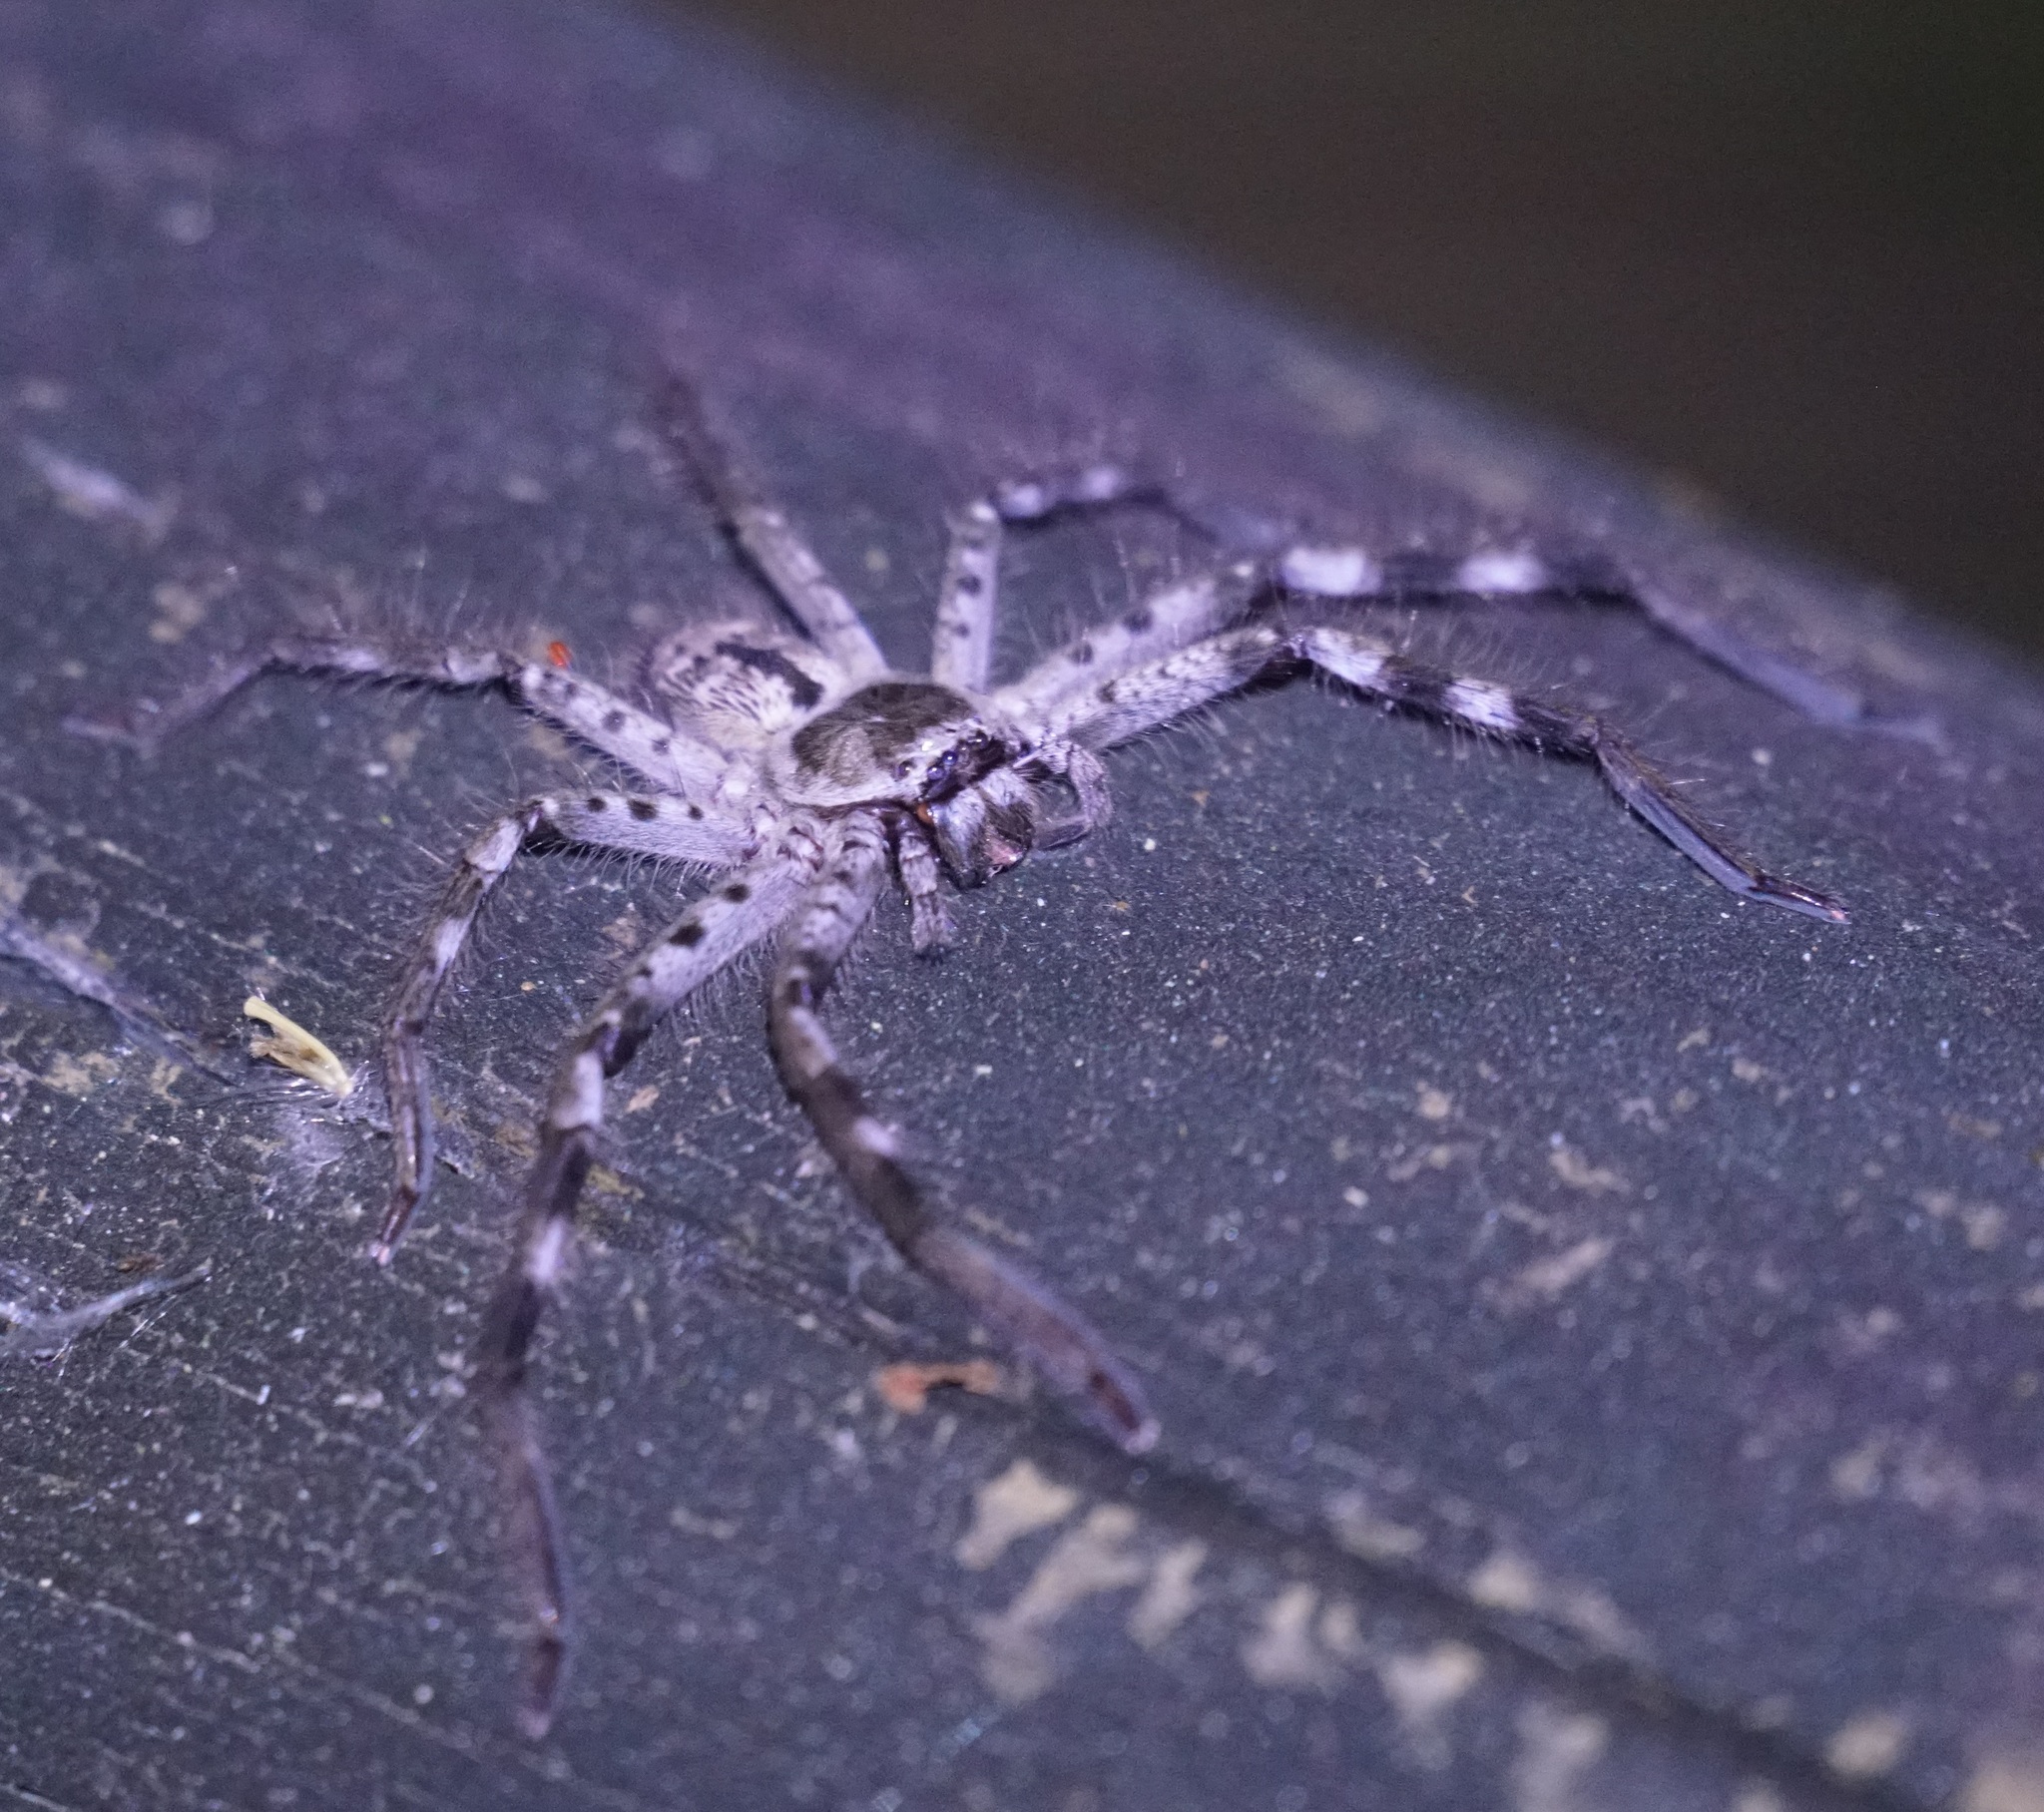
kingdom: Animalia
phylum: Arthropoda
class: Arachnida
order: Araneae
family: Sparassidae
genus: Holconia
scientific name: Holconia immanis
